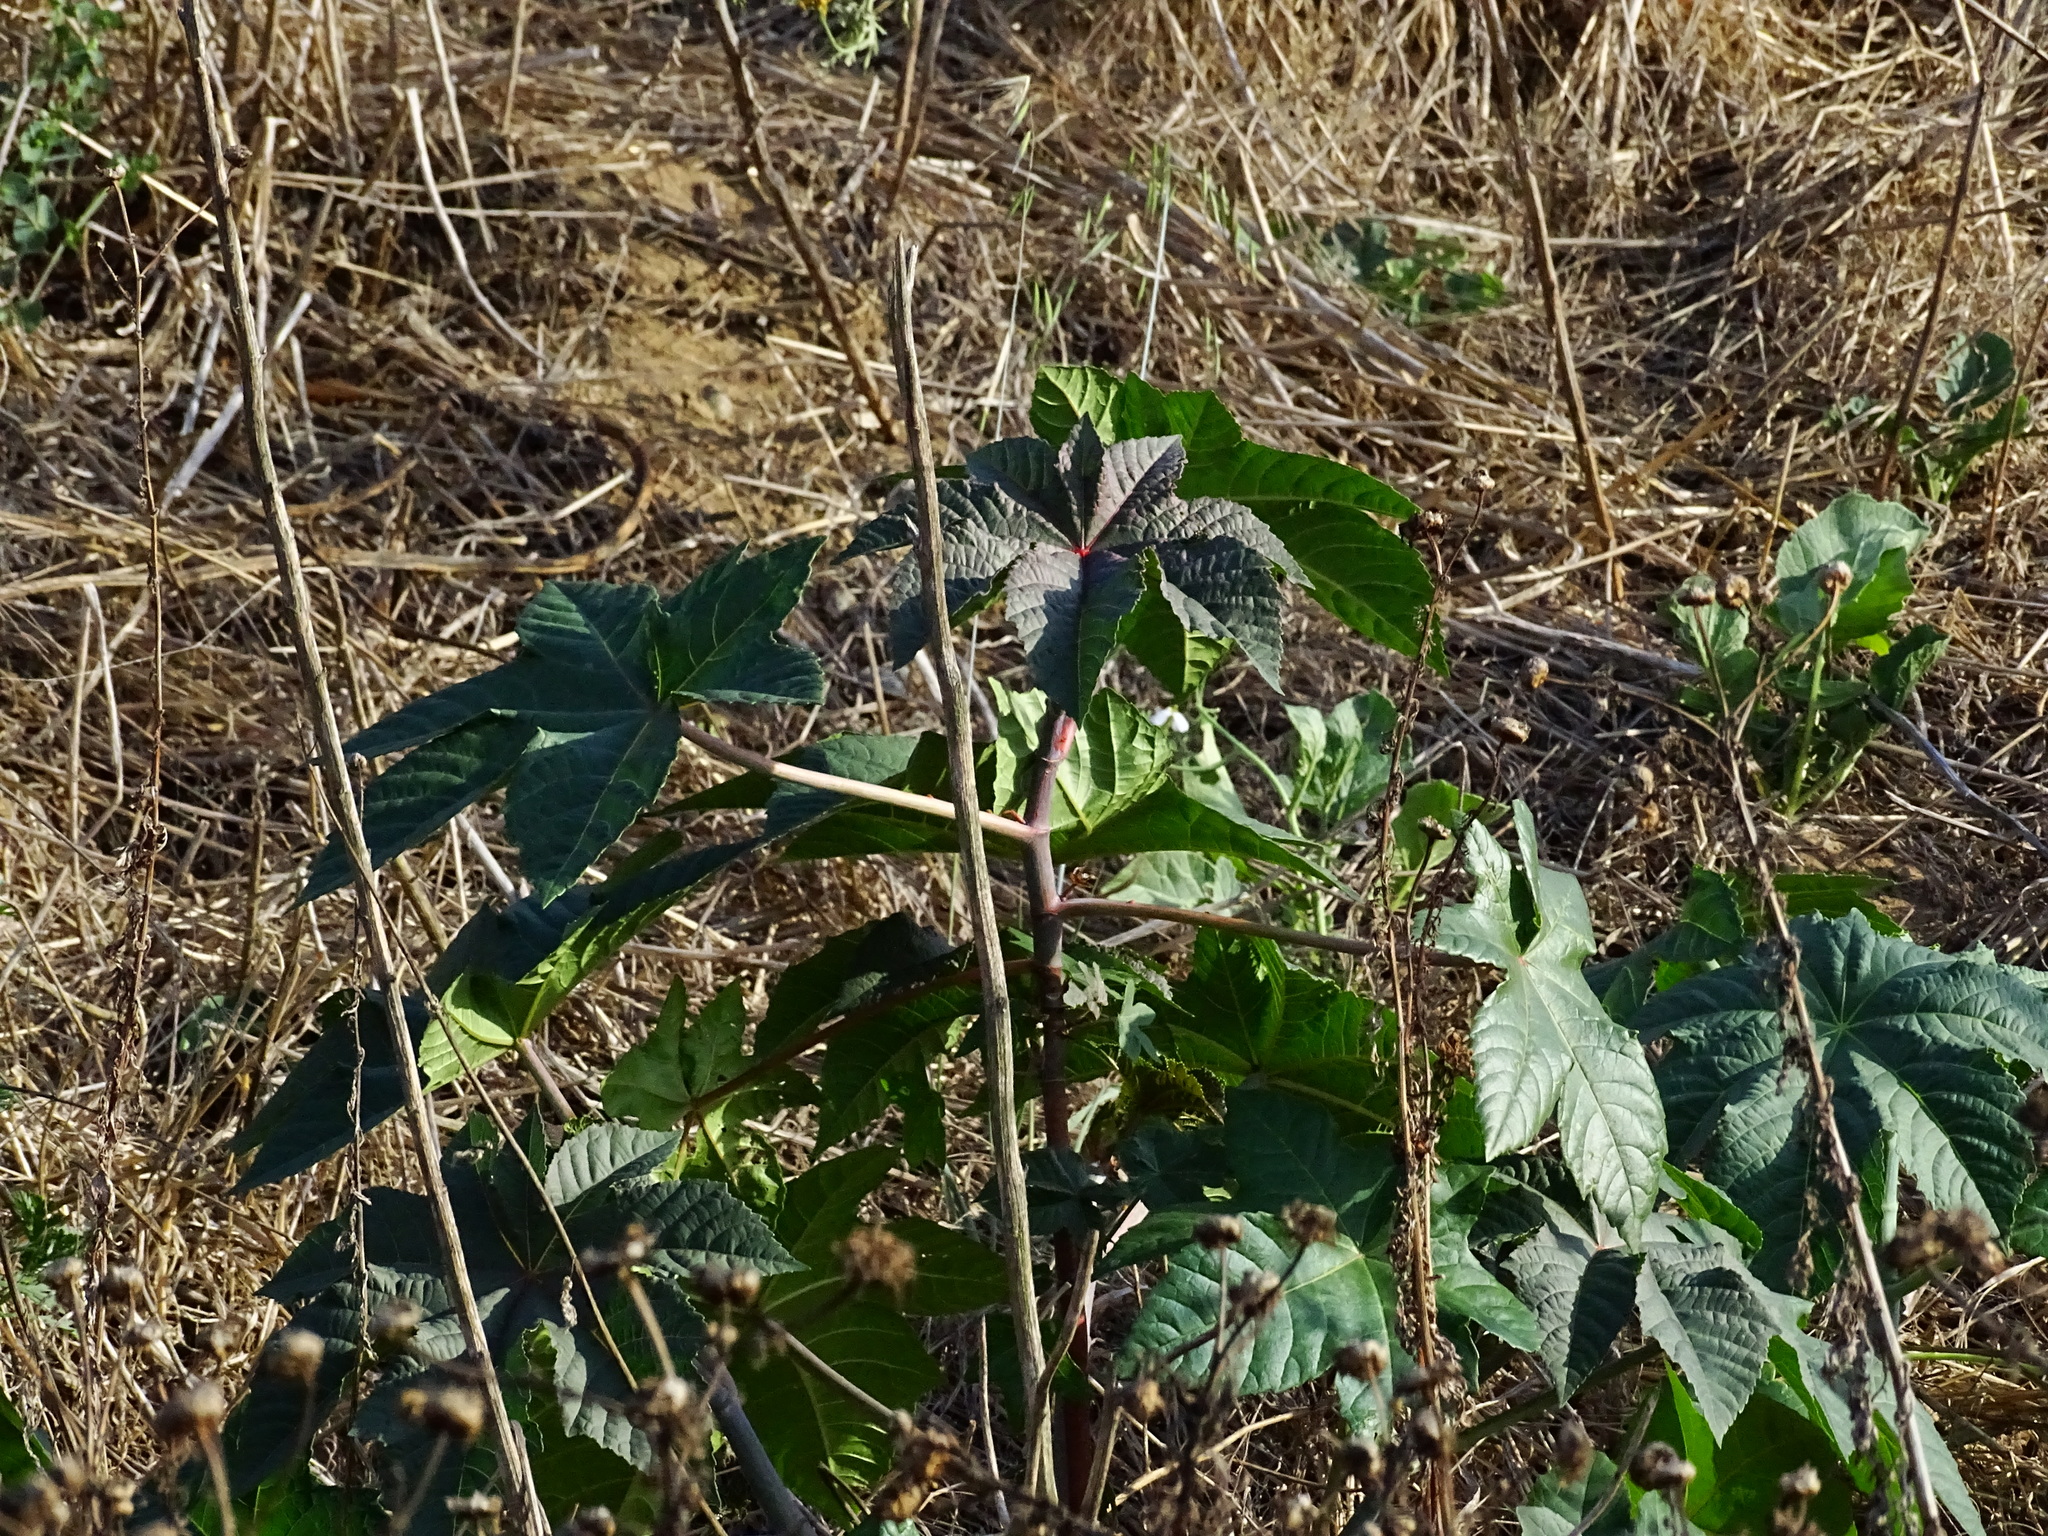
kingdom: Plantae
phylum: Tracheophyta
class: Magnoliopsida
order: Malpighiales
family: Euphorbiaceae
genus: Ricinus
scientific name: Ricinus communis
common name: Castor-oil-plant
